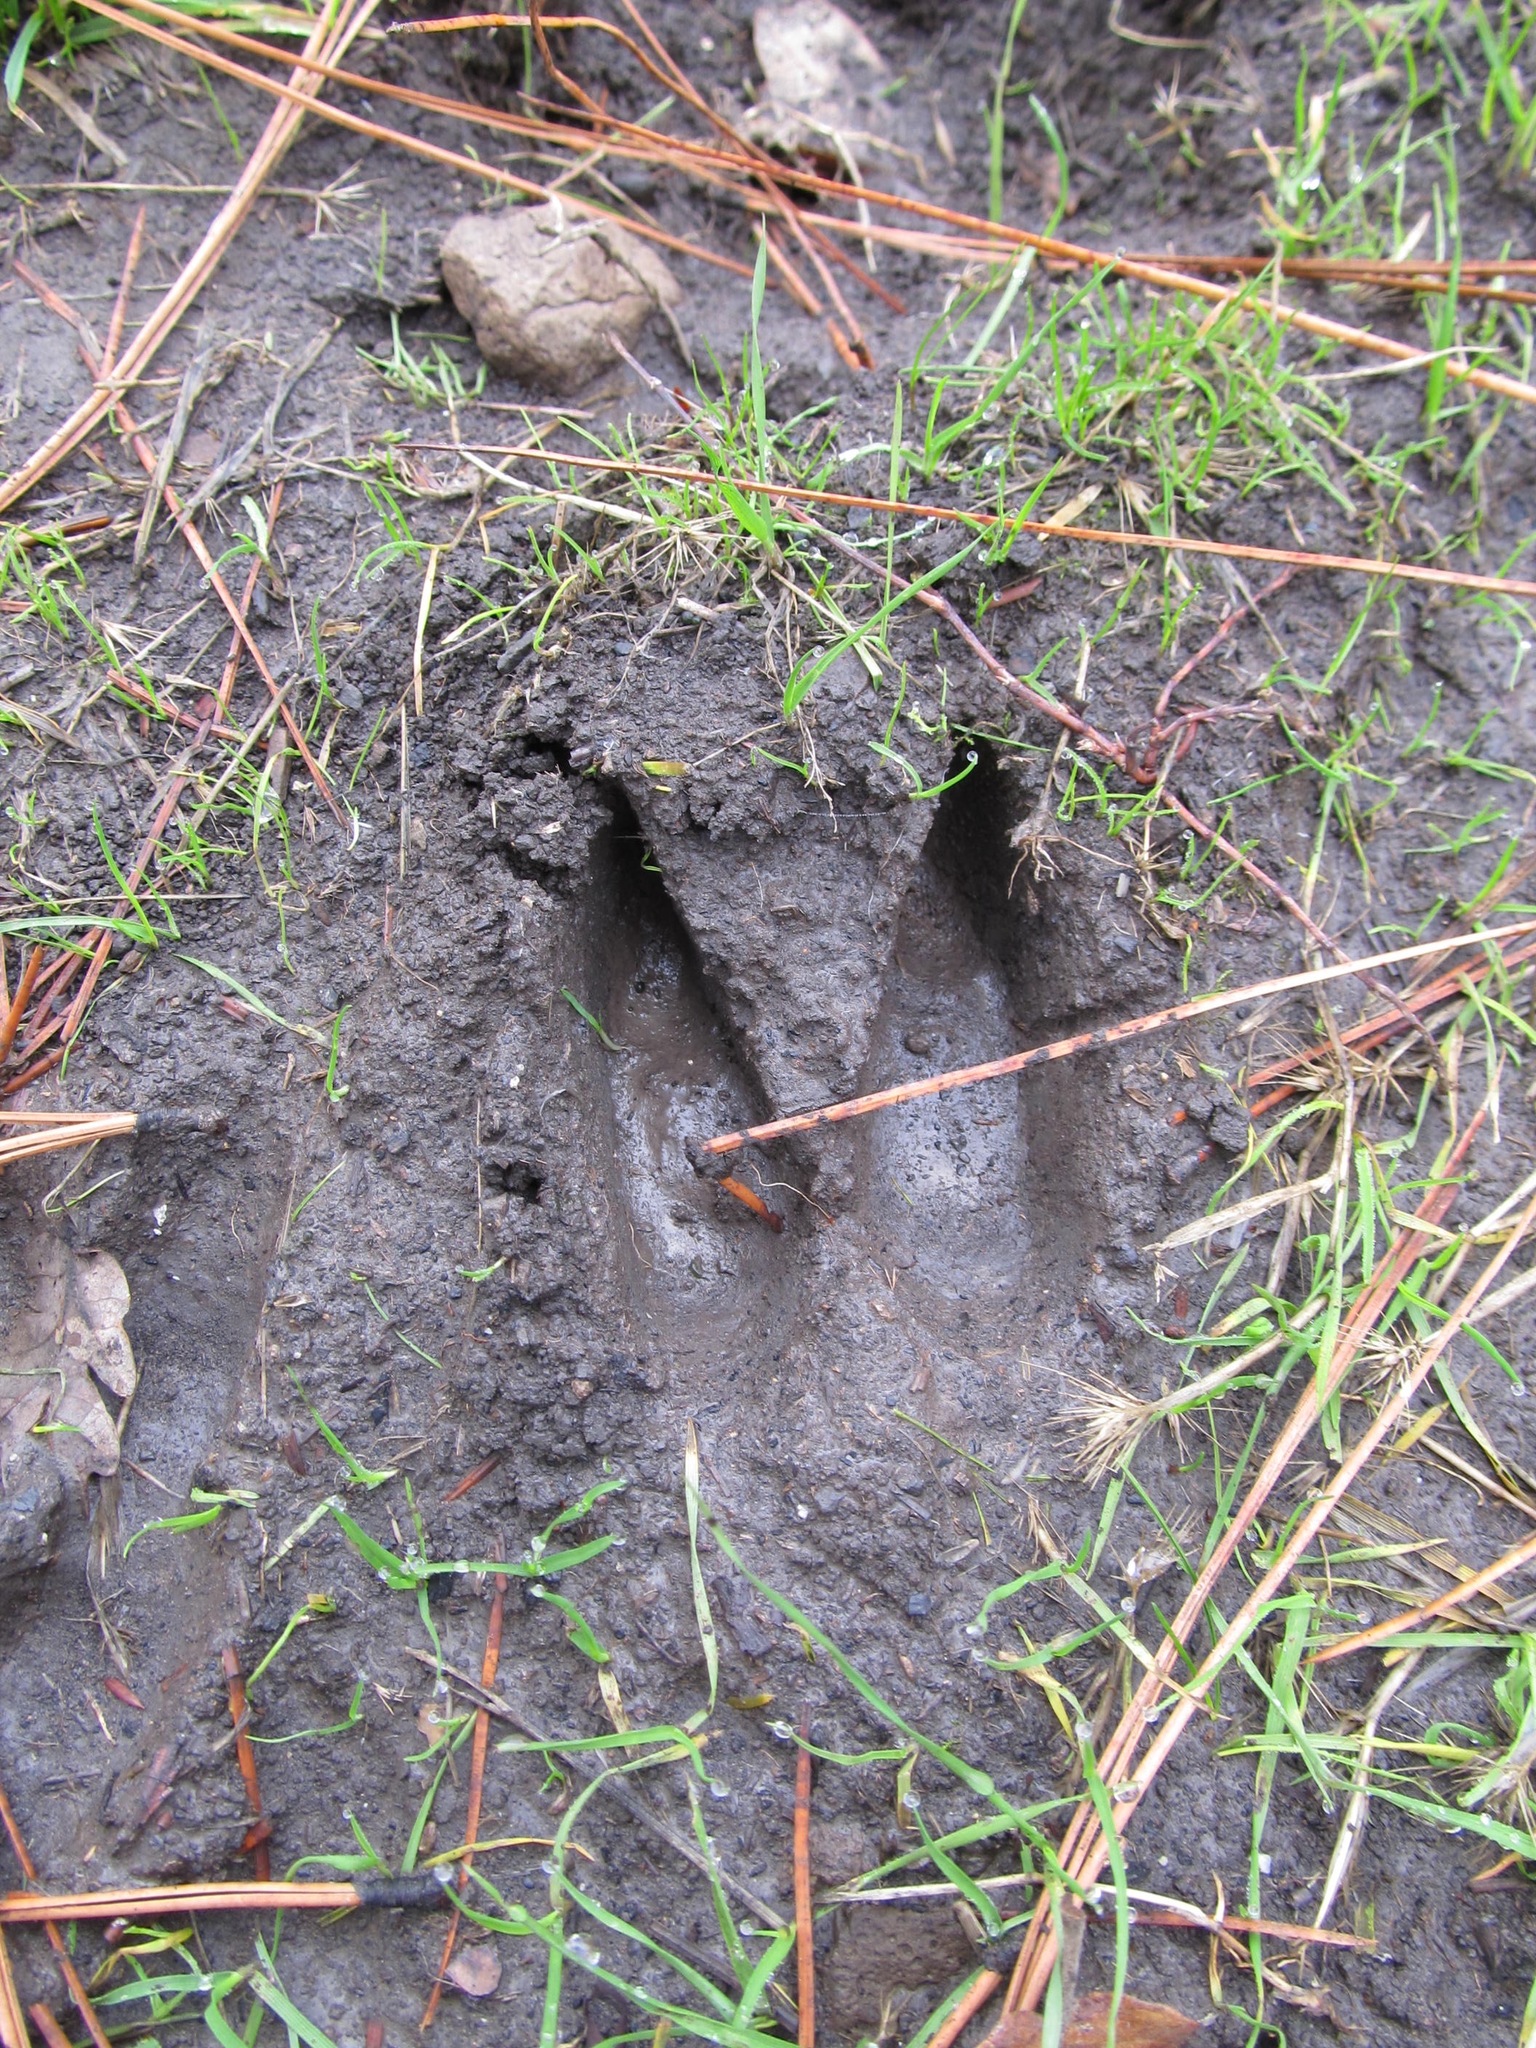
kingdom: Animalia
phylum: Chordata
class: Mammalia
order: Artiodactyla
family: Cervidae
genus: Odocoileus
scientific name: Odocoileus hemionus
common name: Mule deer
